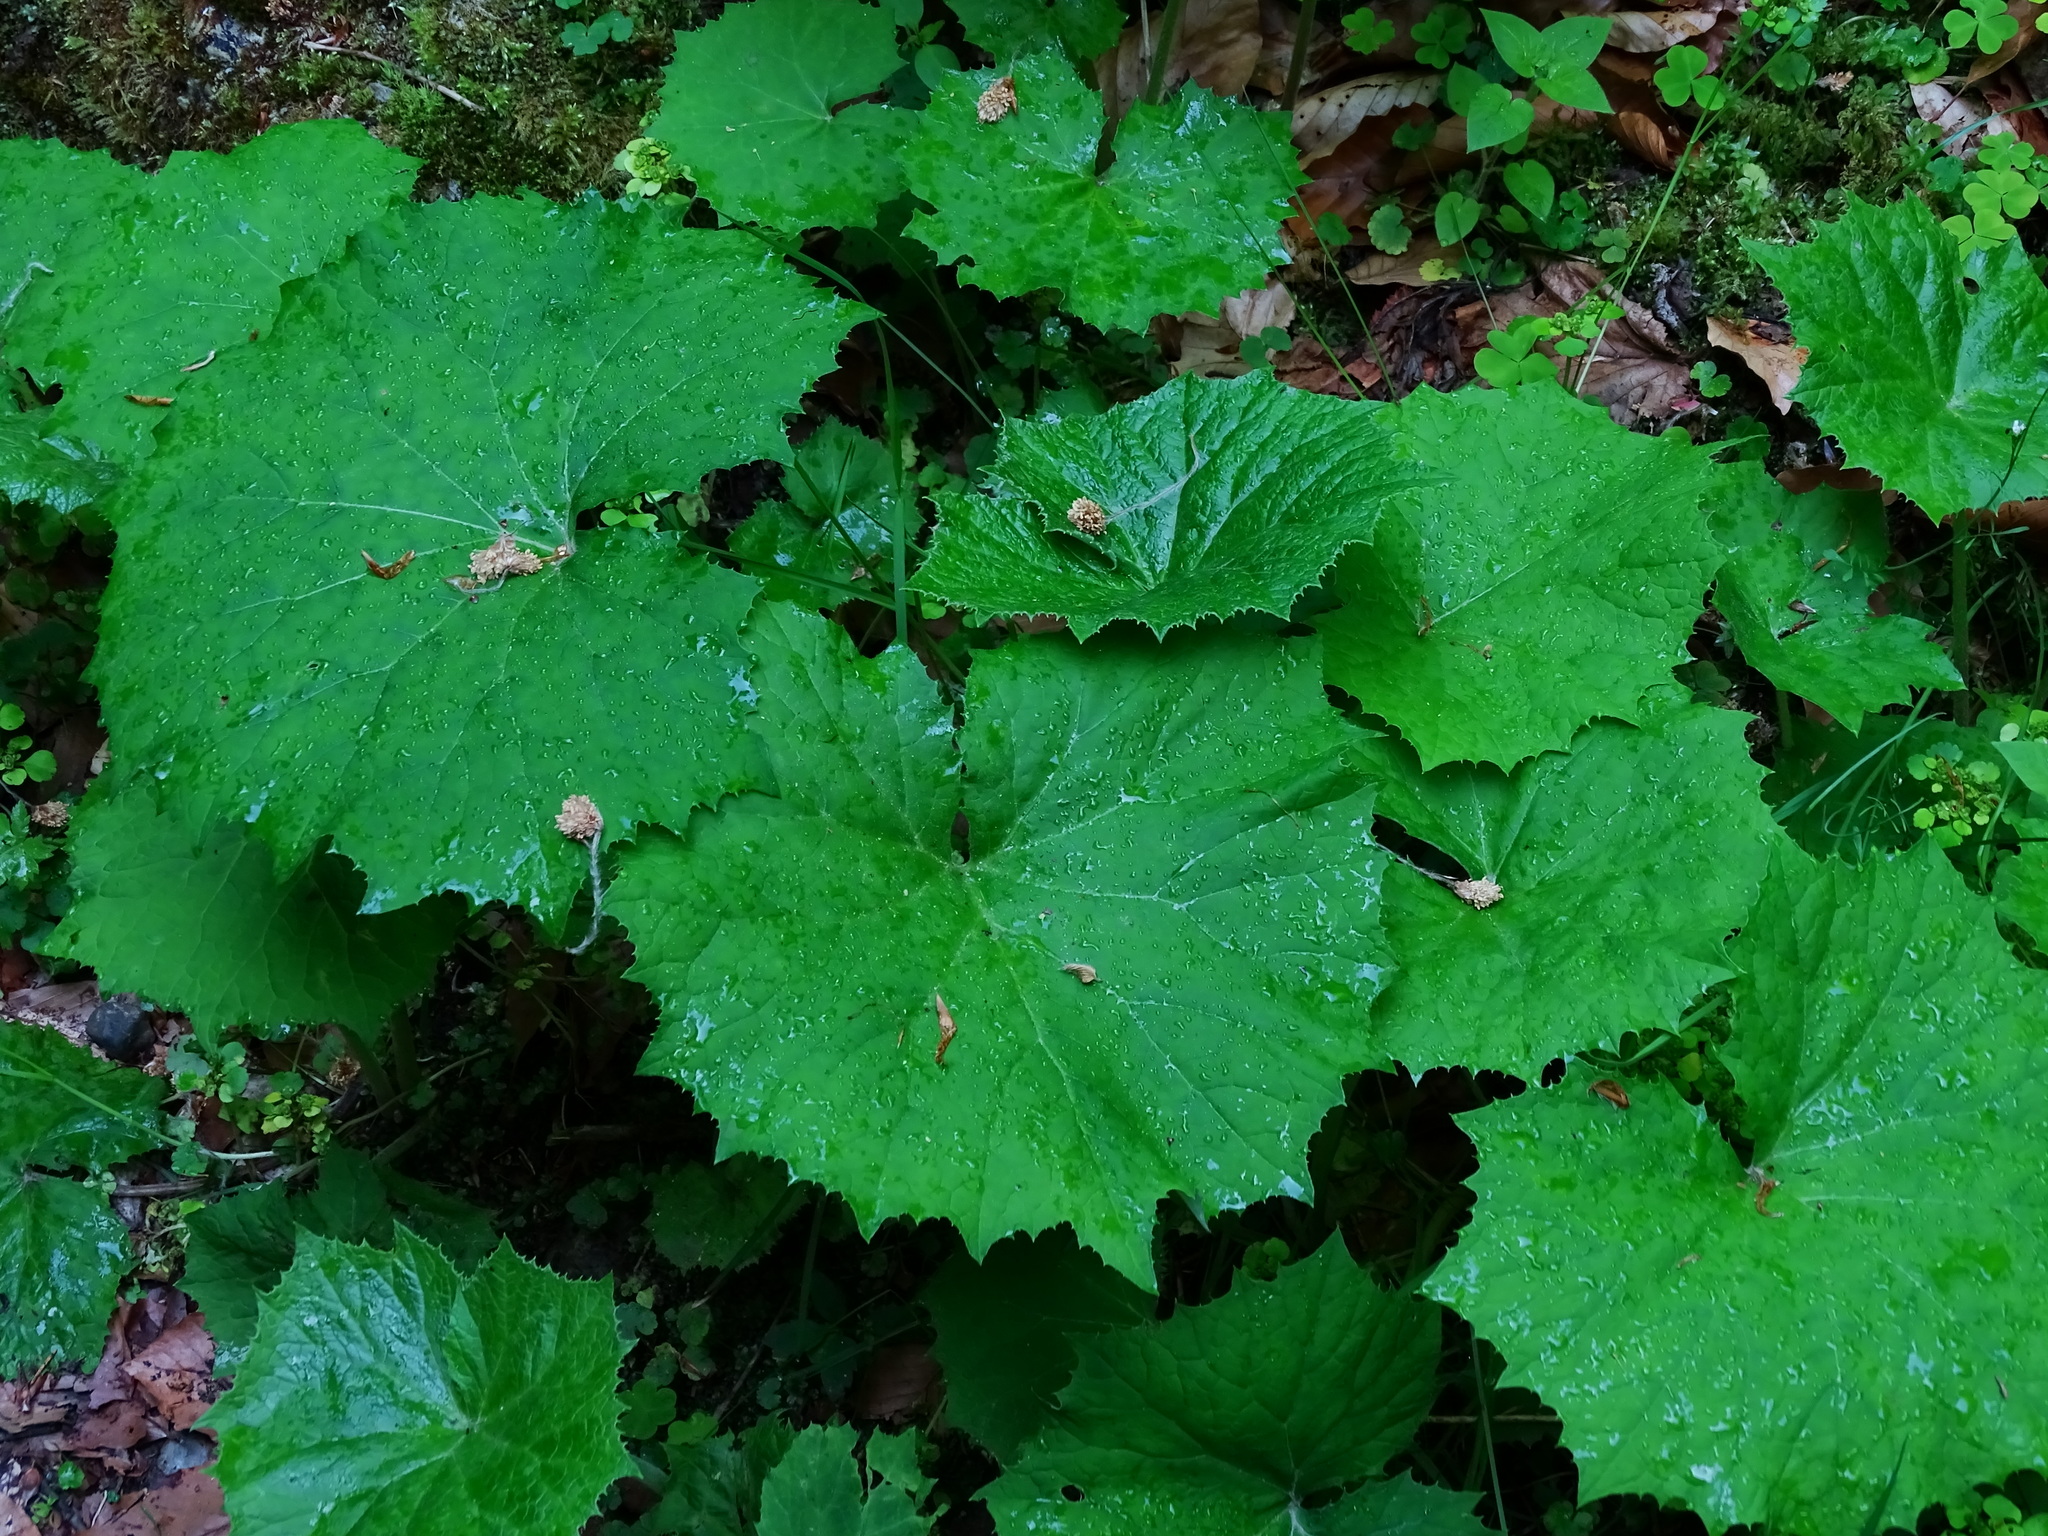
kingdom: Plantae
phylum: Tracheophyta
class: Magnoliopsida
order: Asterales
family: Asteraceae
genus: Petasites
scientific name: Petasites albus
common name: White butterbur
